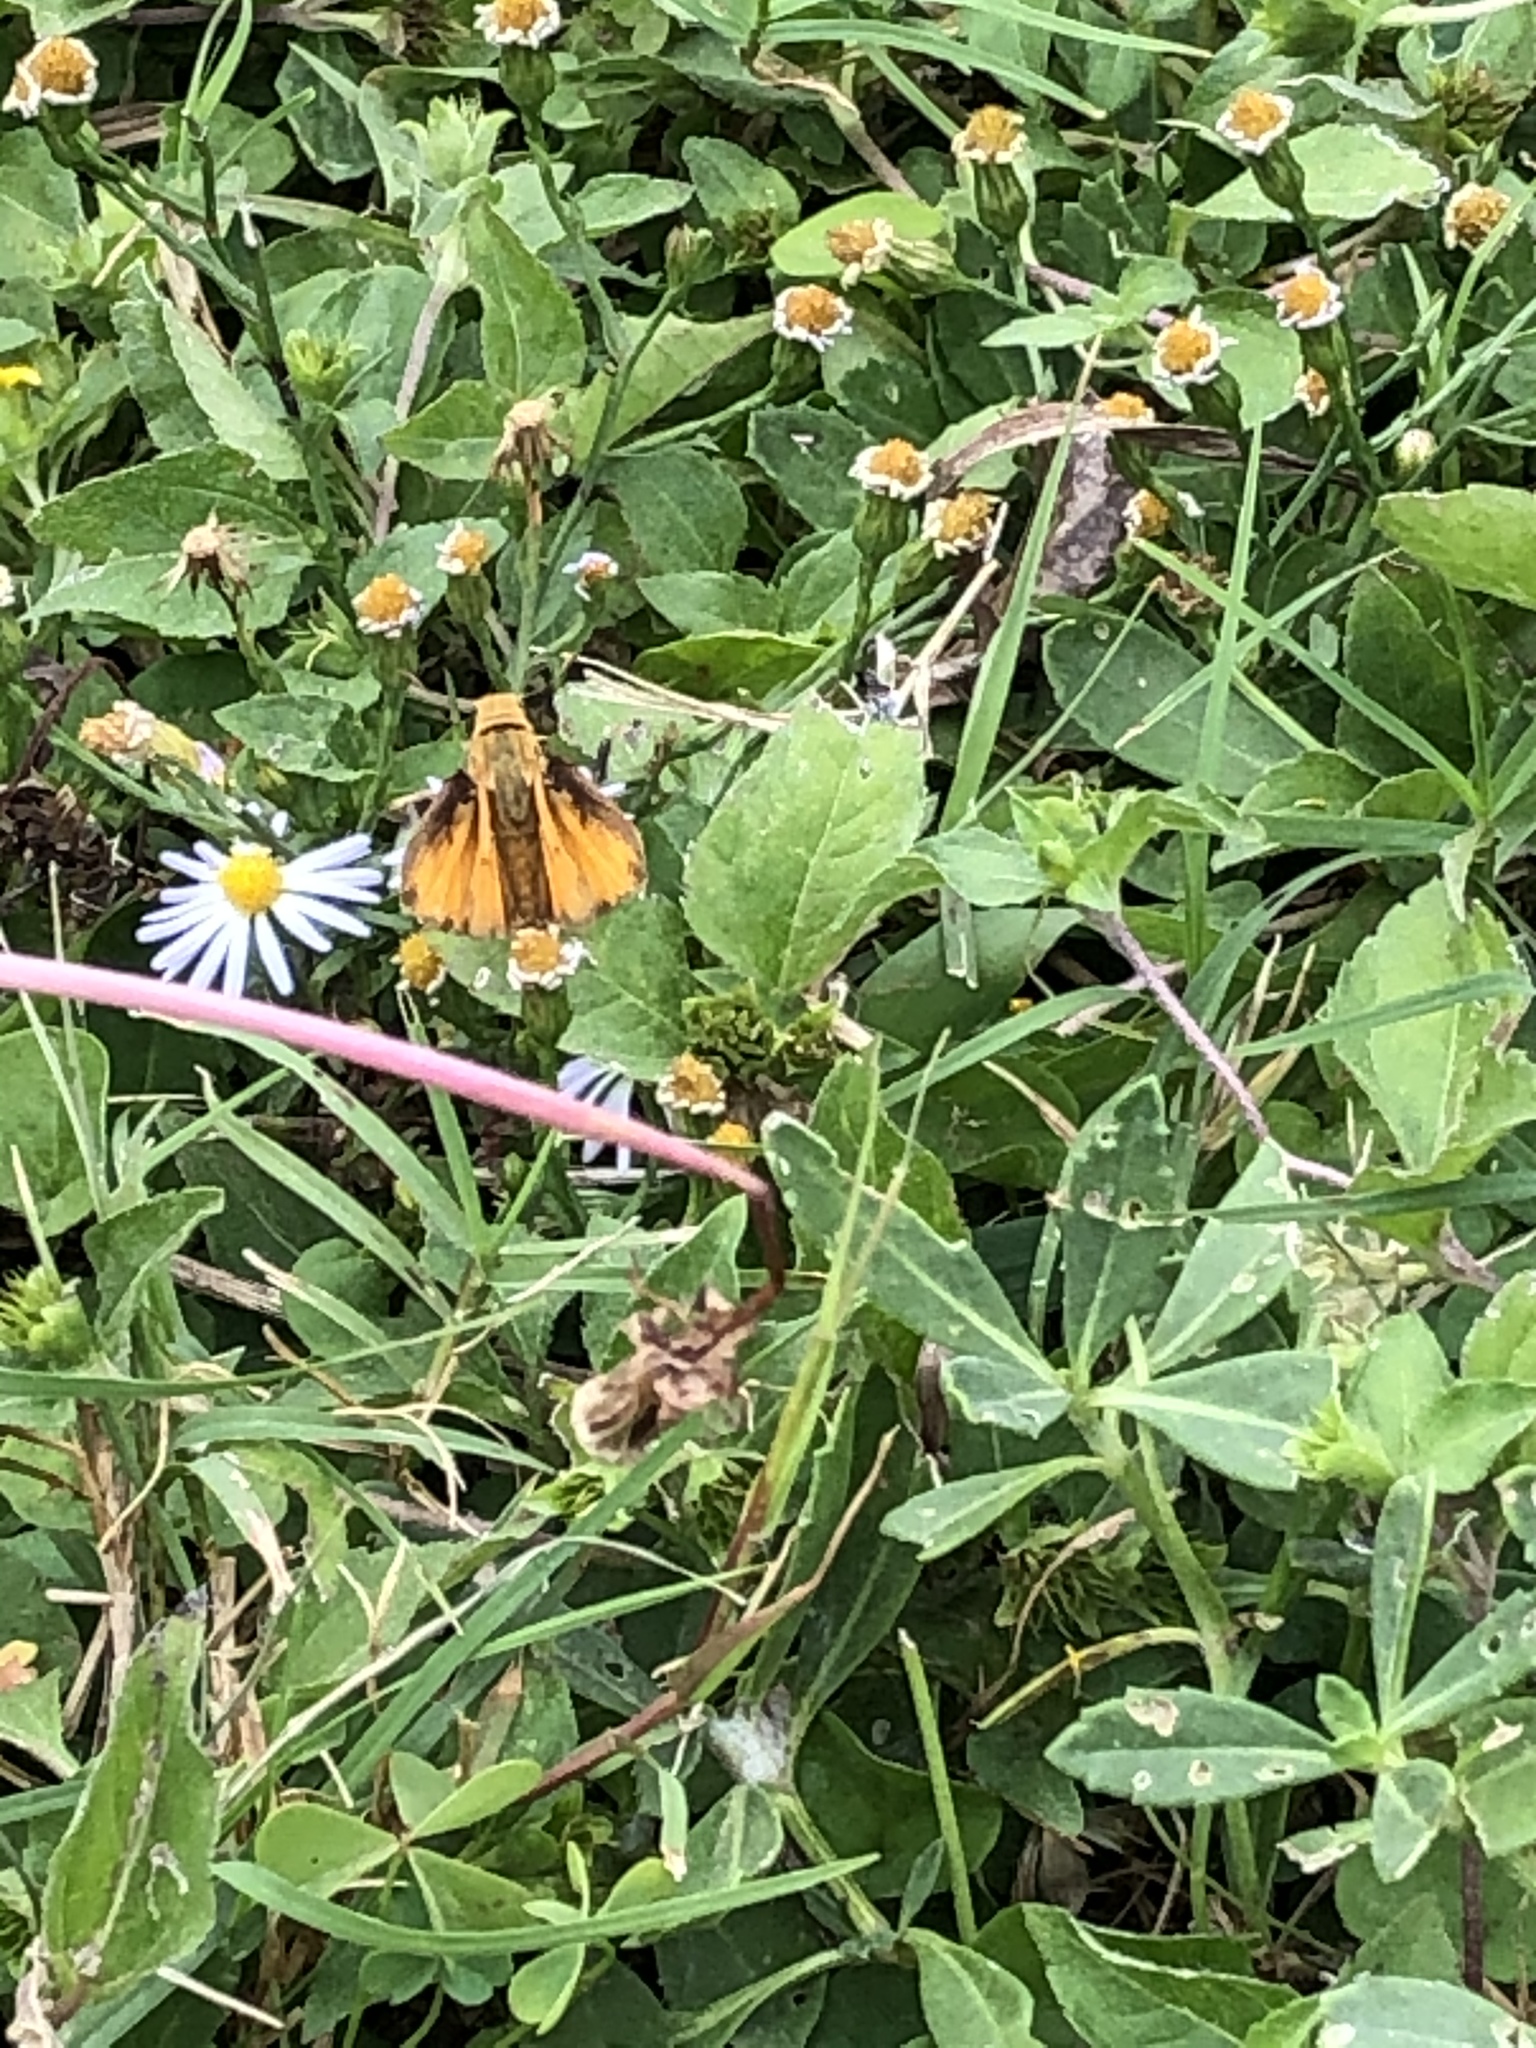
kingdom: Animalia
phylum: Arthropoda
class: Insecta
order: Lepidoptera
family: Hesperiidae
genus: Hylephila
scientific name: Hylephila phyleus
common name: Fiery skipper
